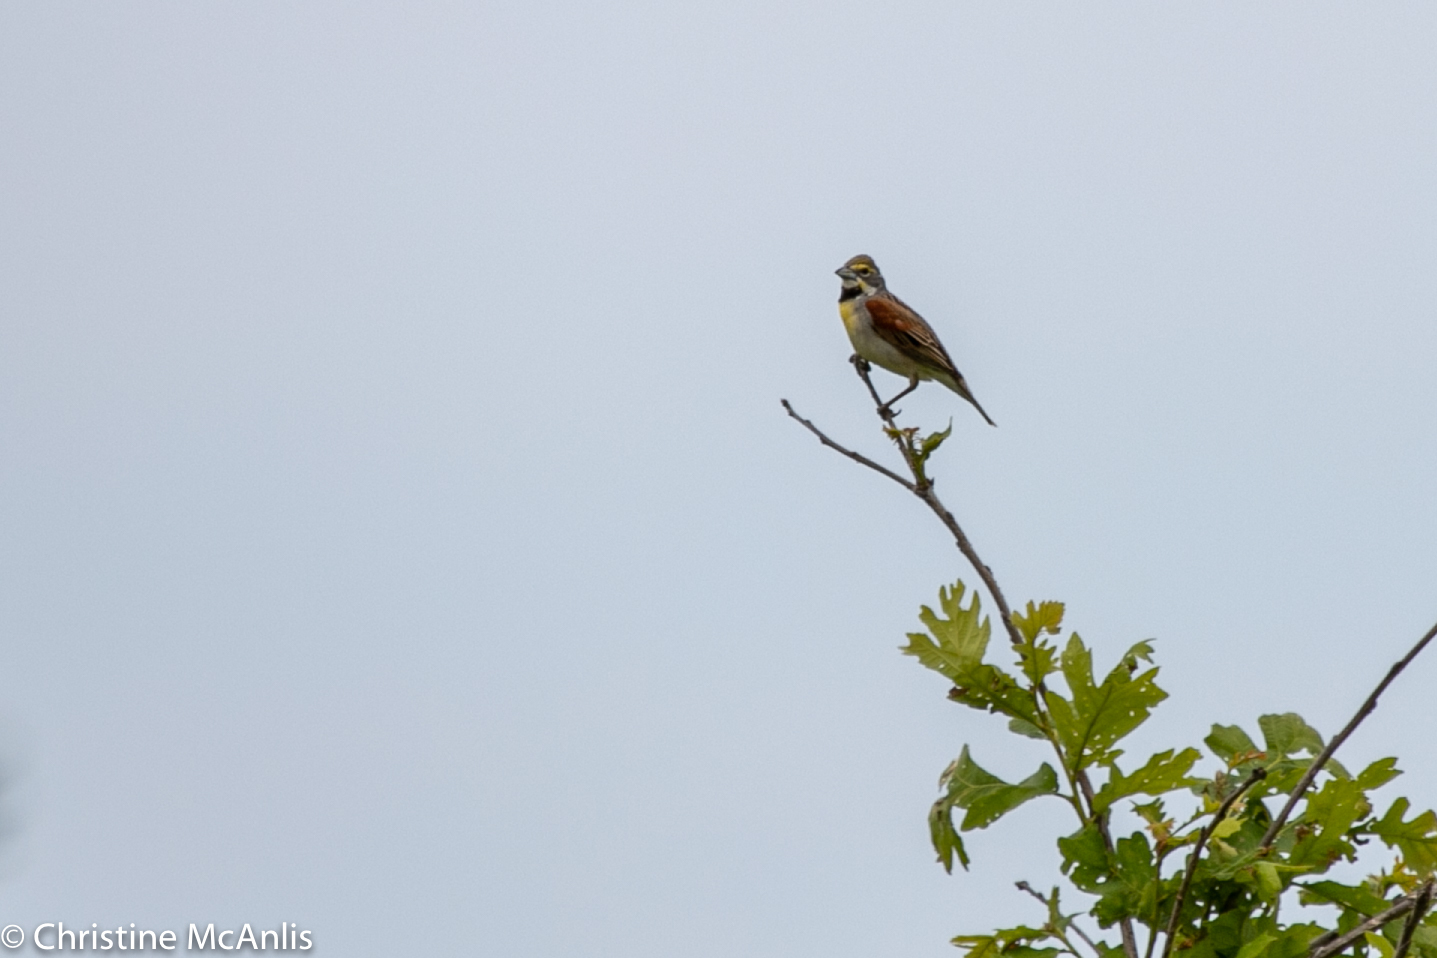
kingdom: Animalia
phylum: Chordata
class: Aves
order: Passeriformes
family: Cardinalidae
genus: Spiza
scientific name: Spiza americana
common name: Dickcissel
